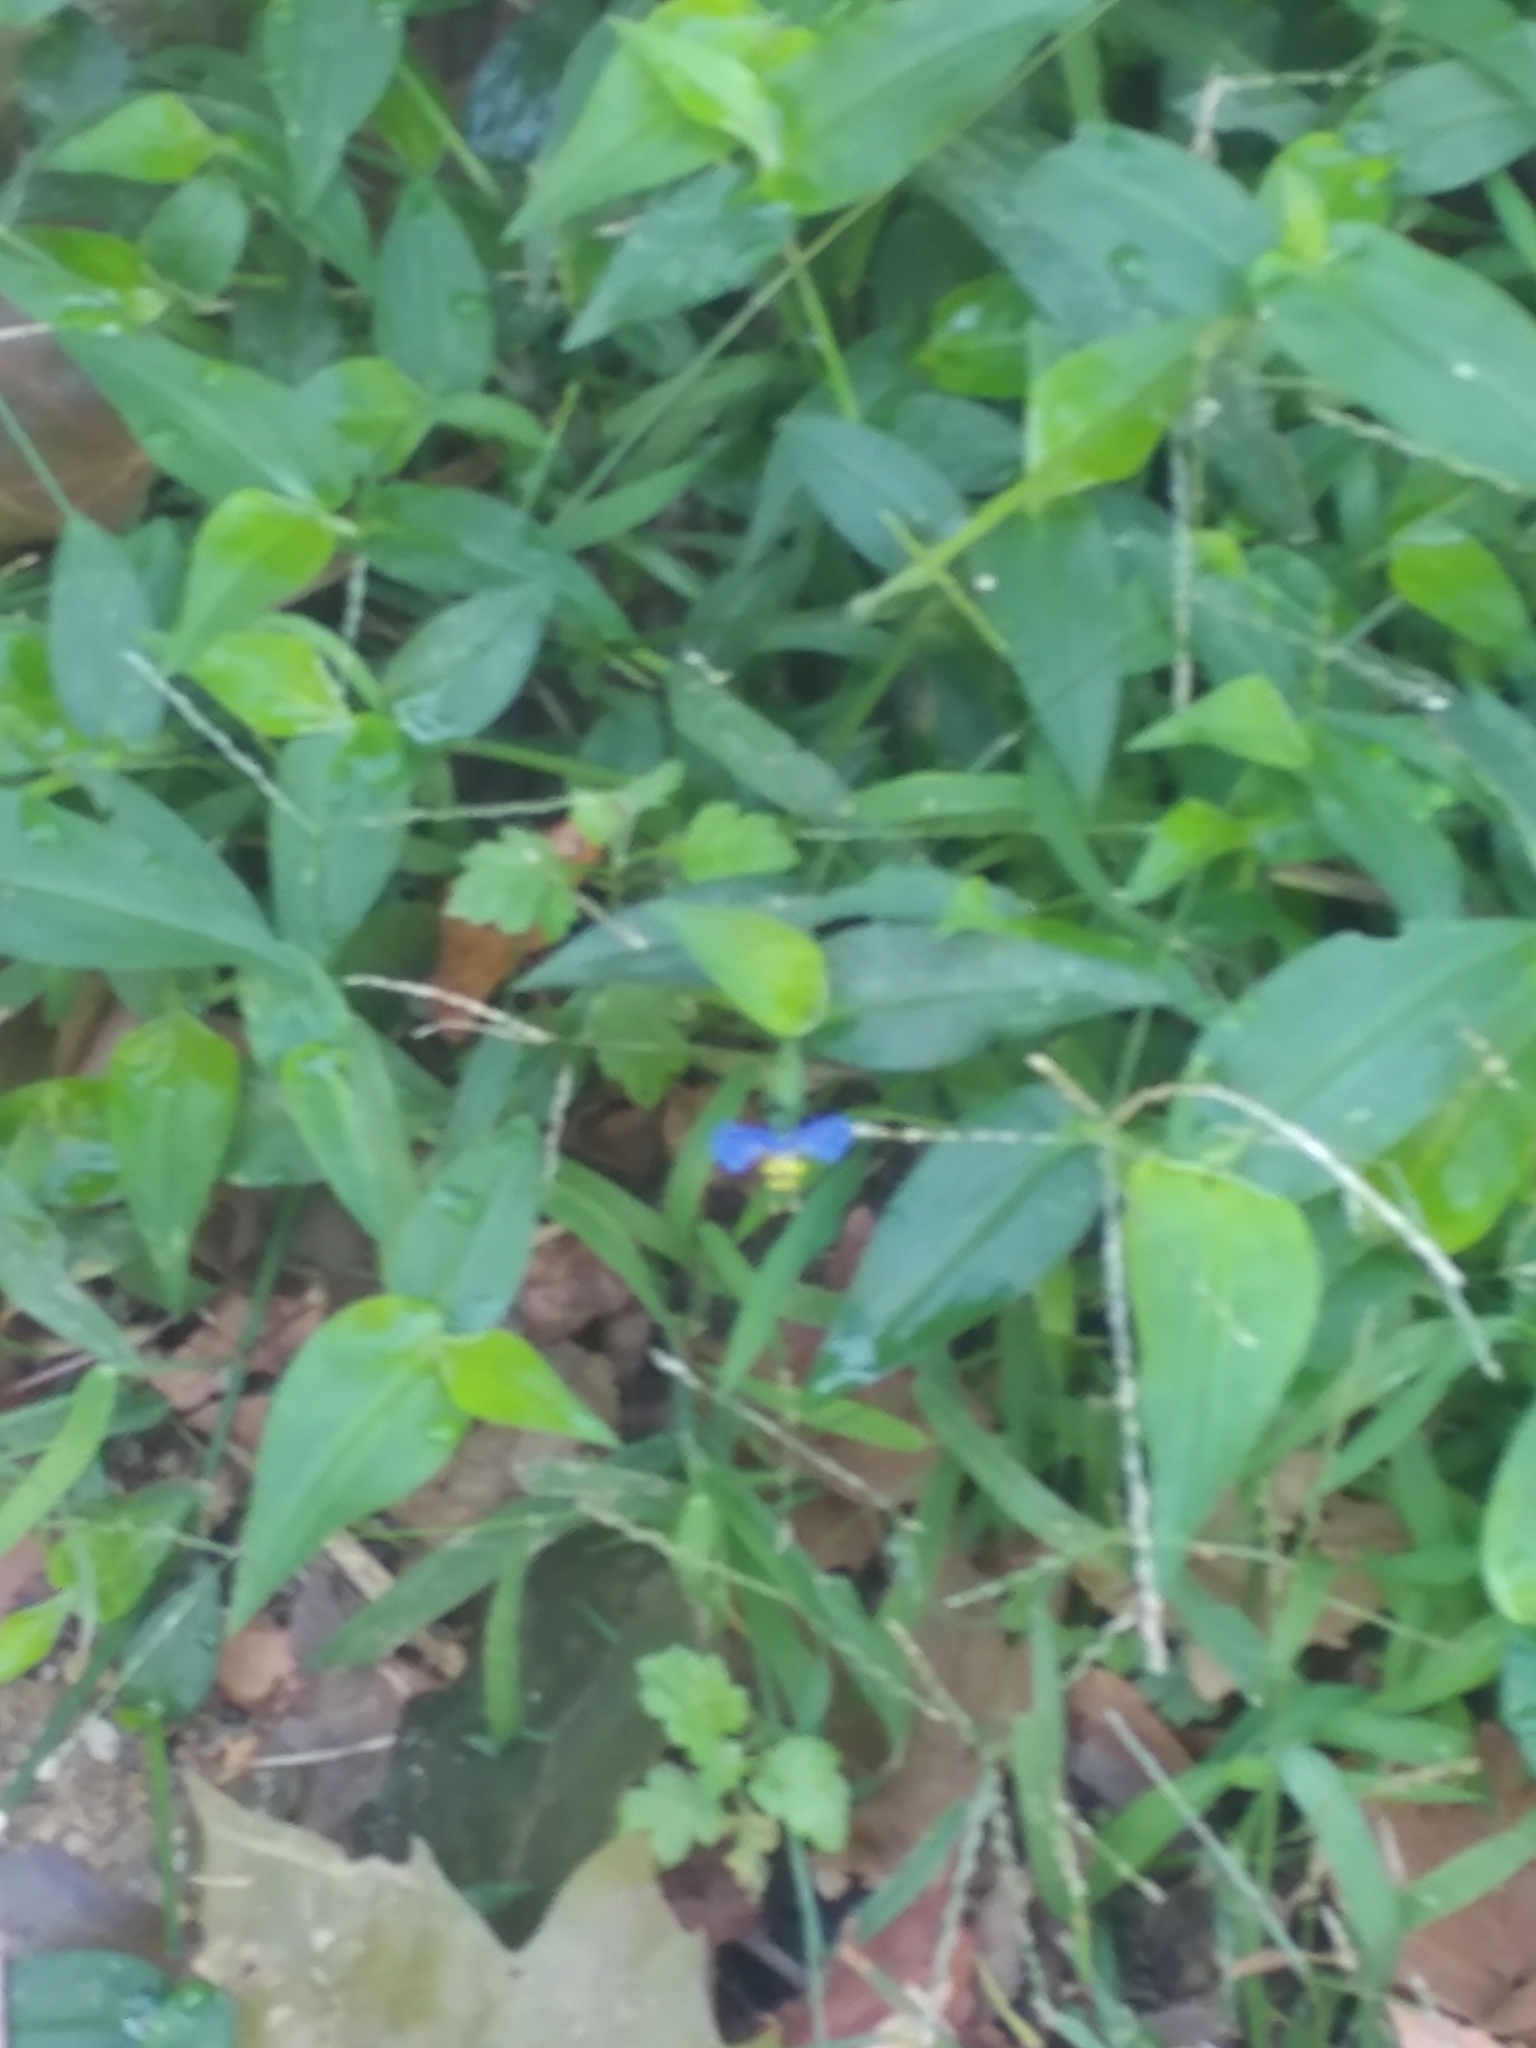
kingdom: Plantae
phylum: Tracheophyta
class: Liliopsida
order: Commelinales
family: Commelinaceae
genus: Commelina
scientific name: Commelina communis
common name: Asiatic dayflower
